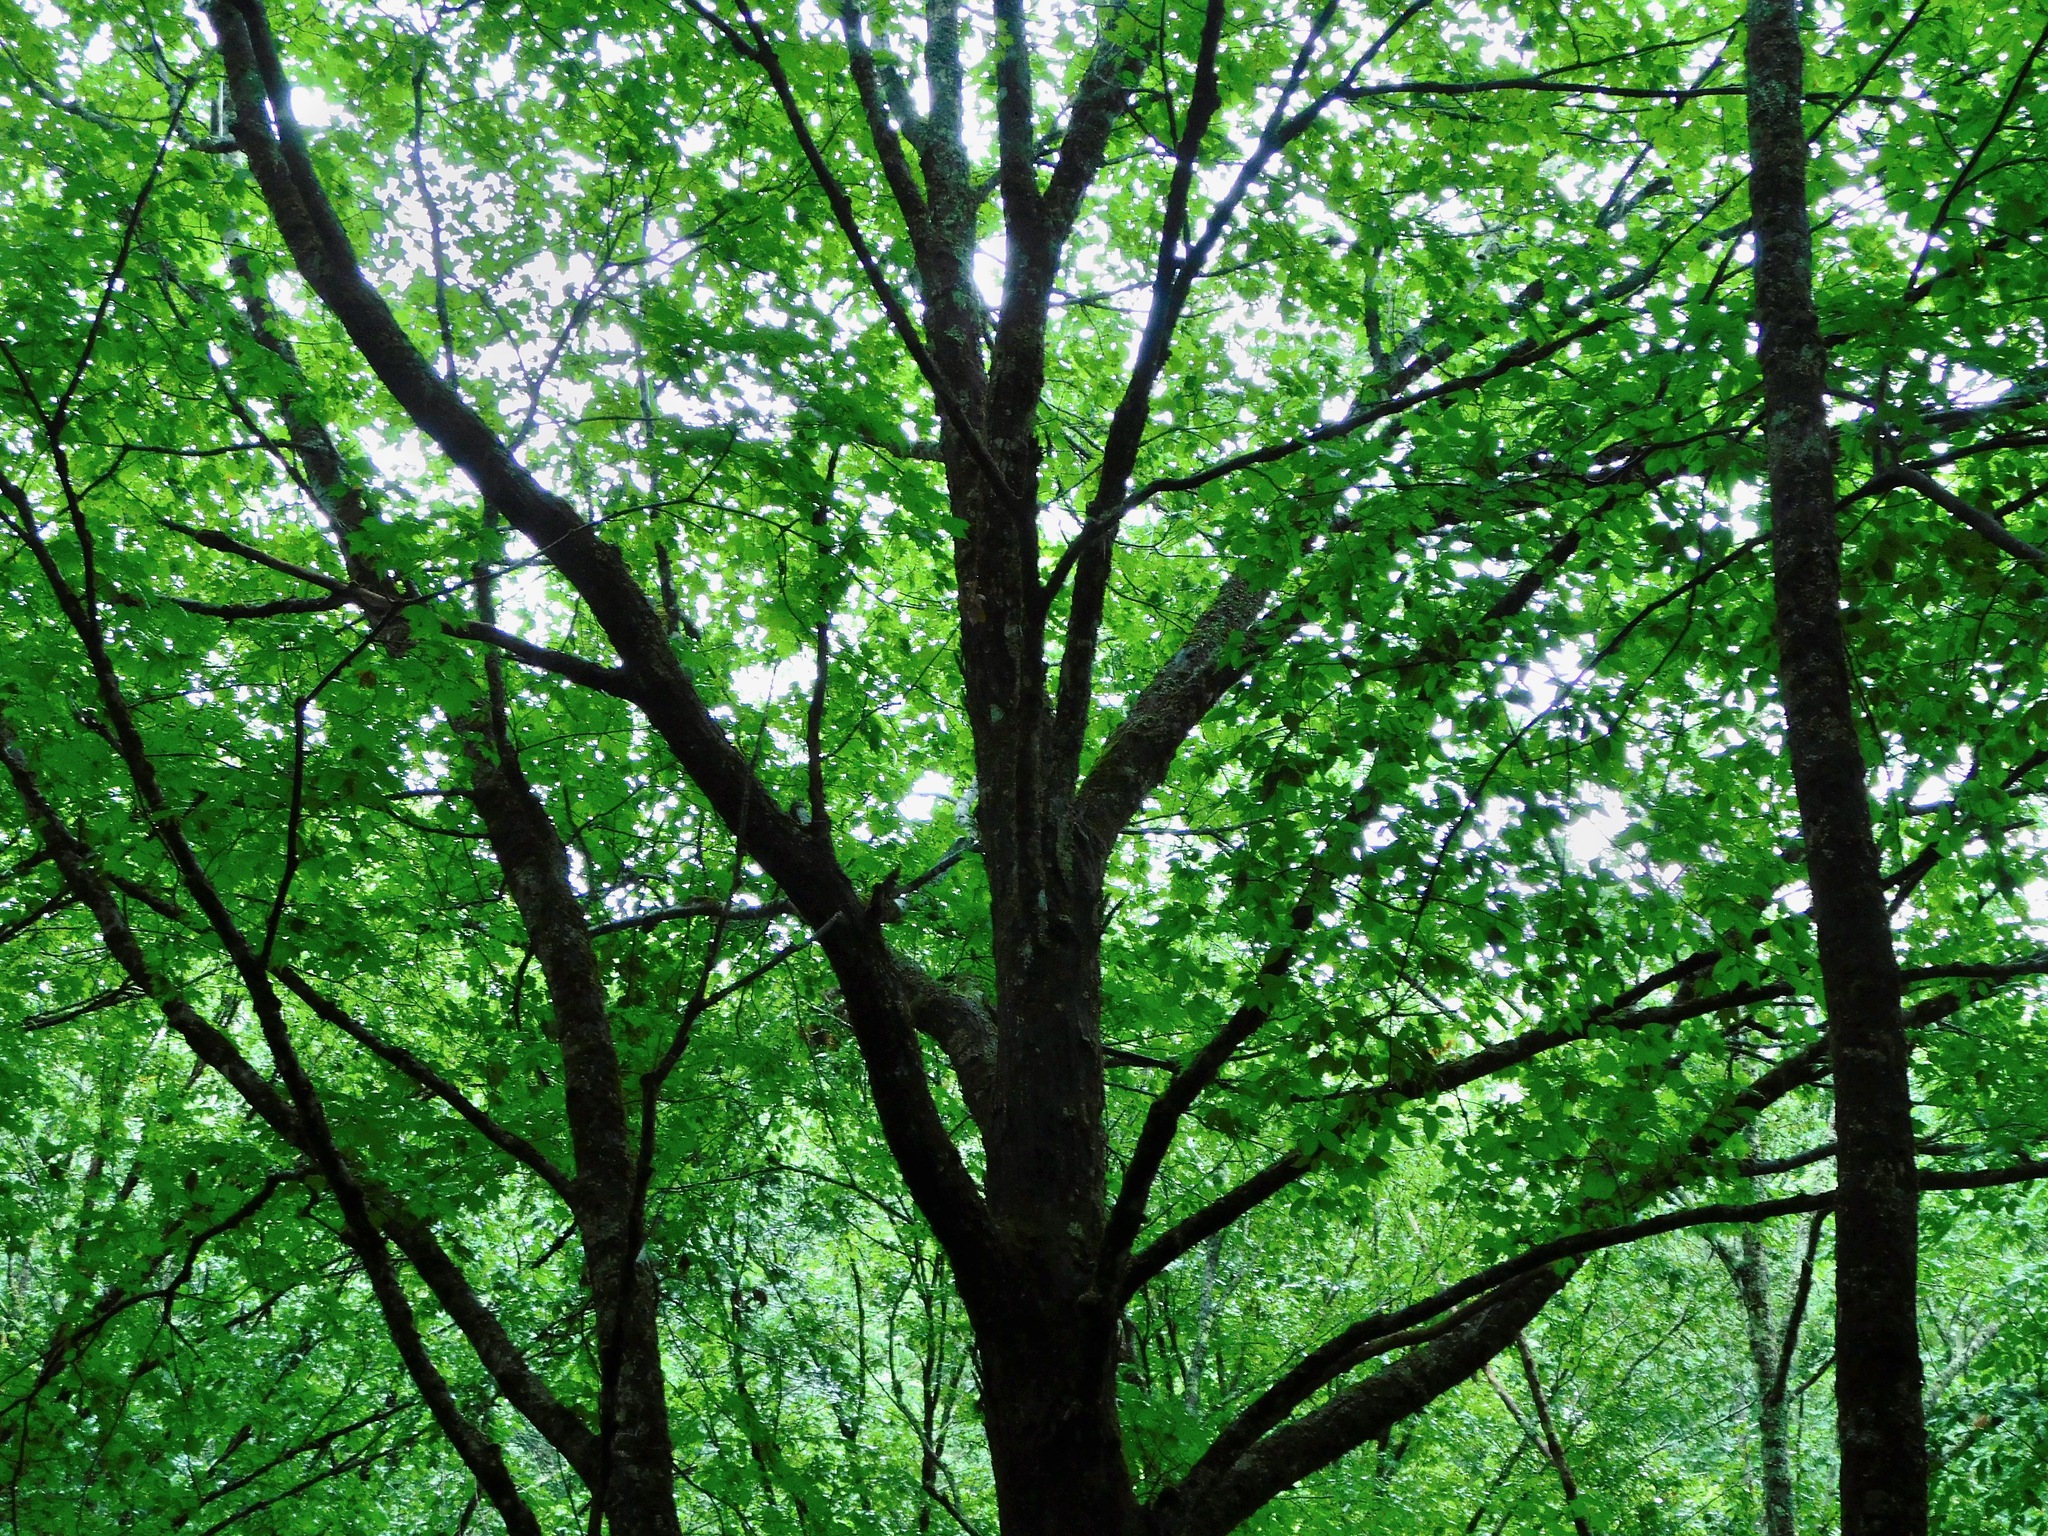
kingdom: Plantae
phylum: Tracheophyta
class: Magnoliopsida
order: Sapindales
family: Sapindaceae
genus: Acer
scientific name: Acer freemanii
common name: Freeman maple
